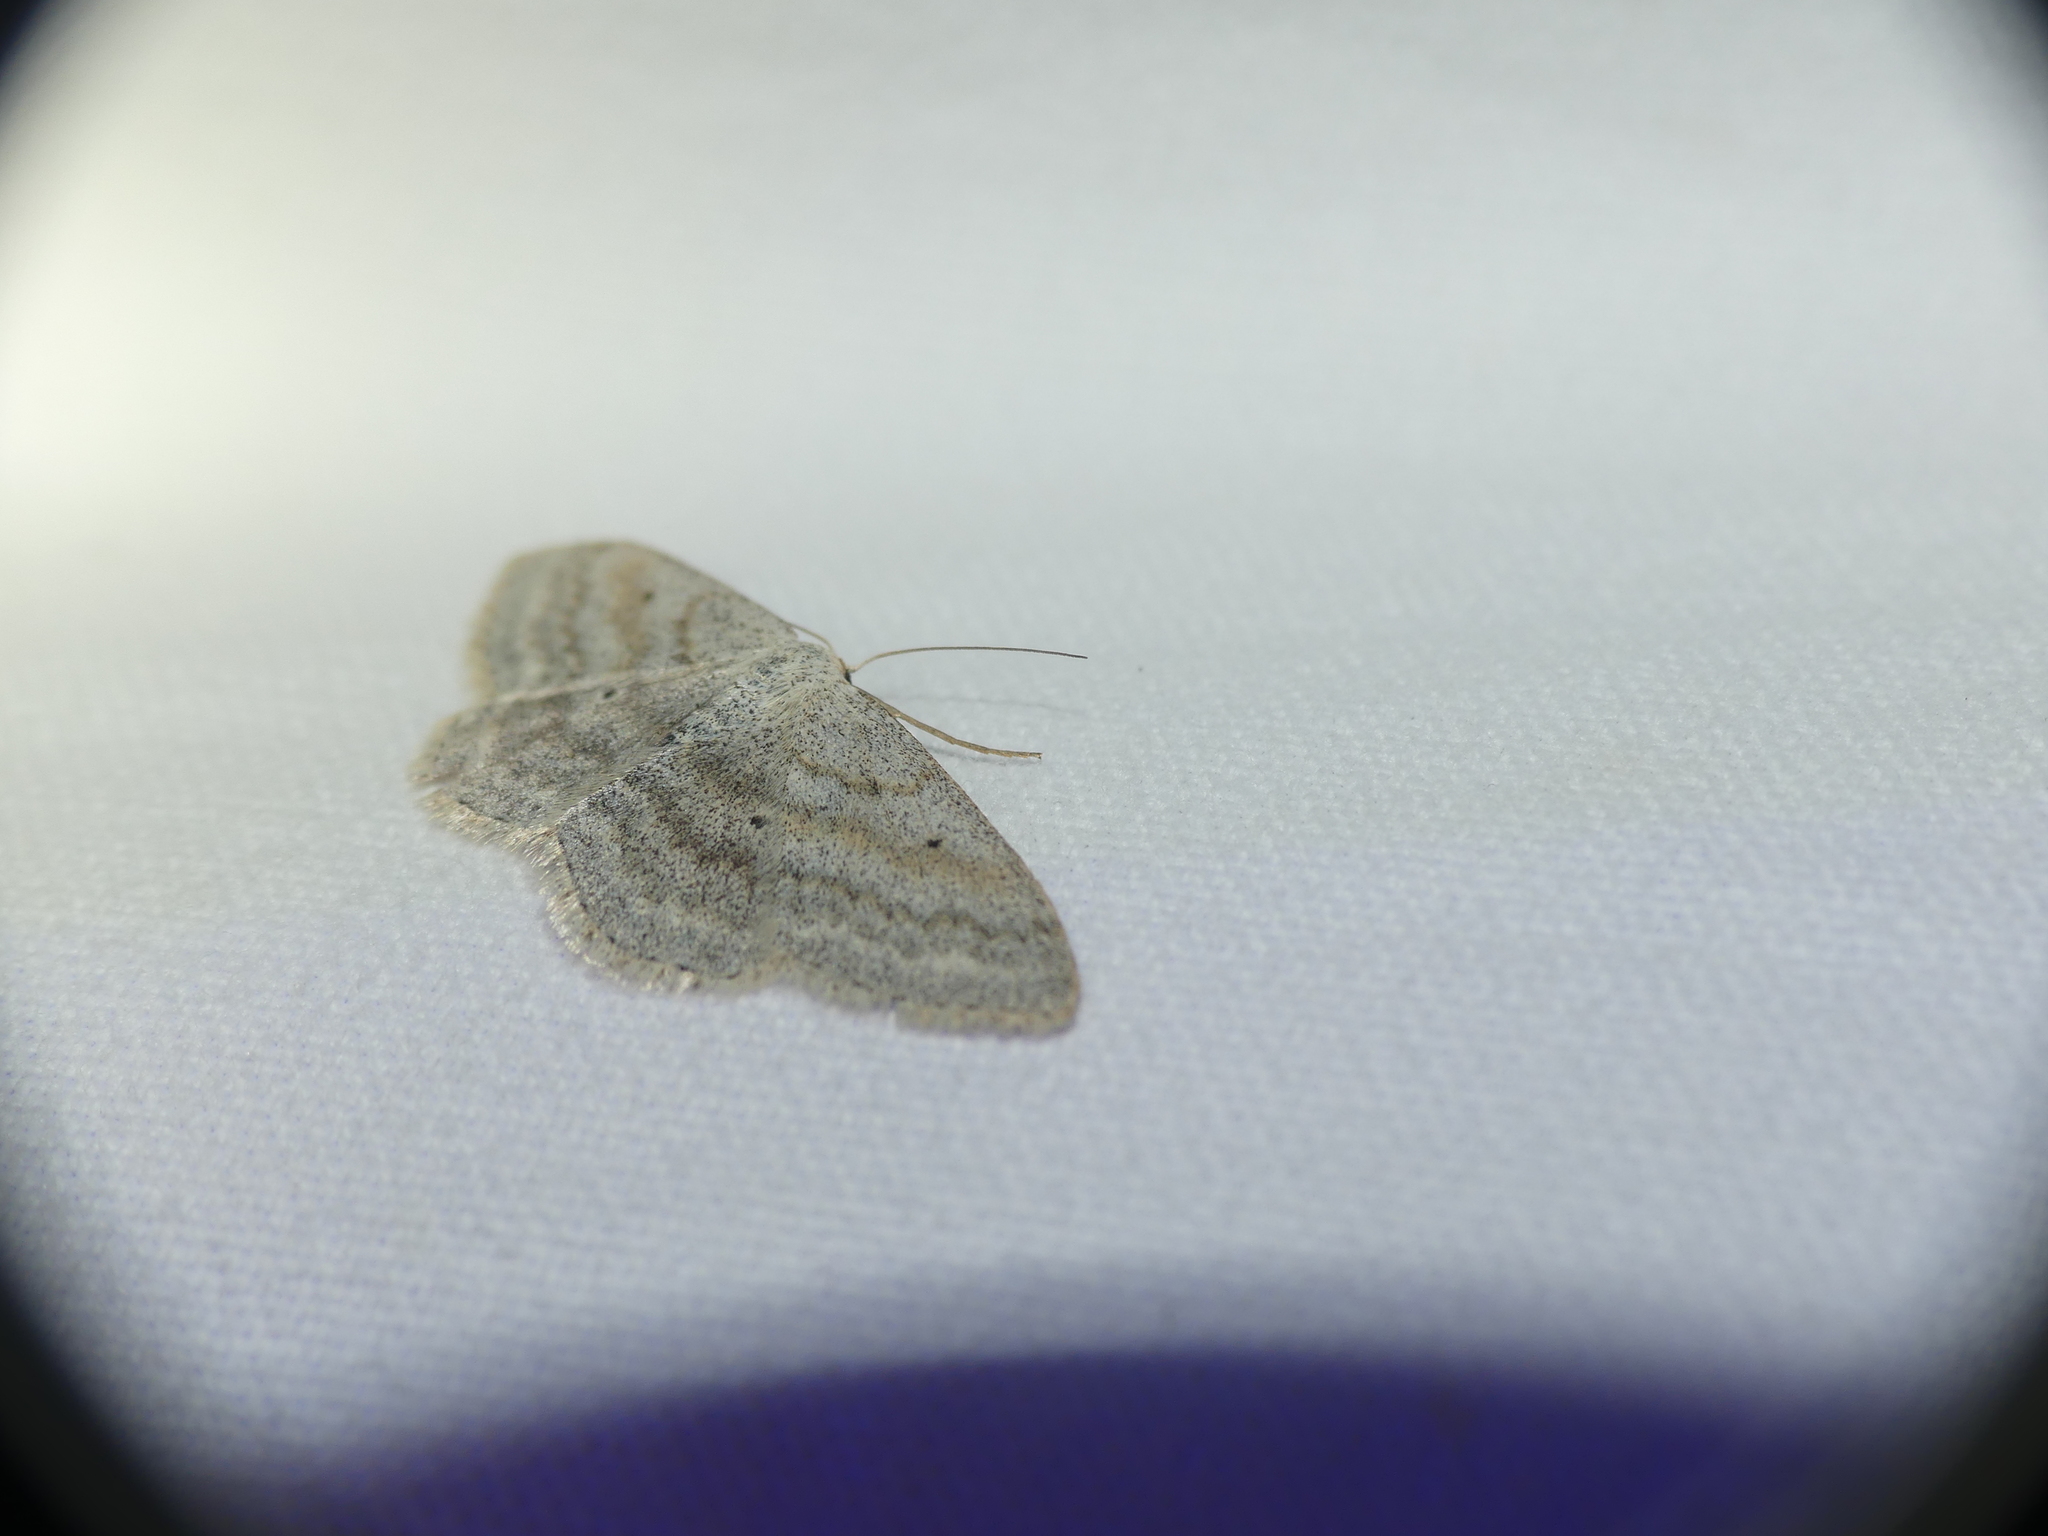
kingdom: Animalia
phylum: Arthropoda
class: Insecta
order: Lepidoptera
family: Geometridae
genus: Scopula
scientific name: Scopula incanata
